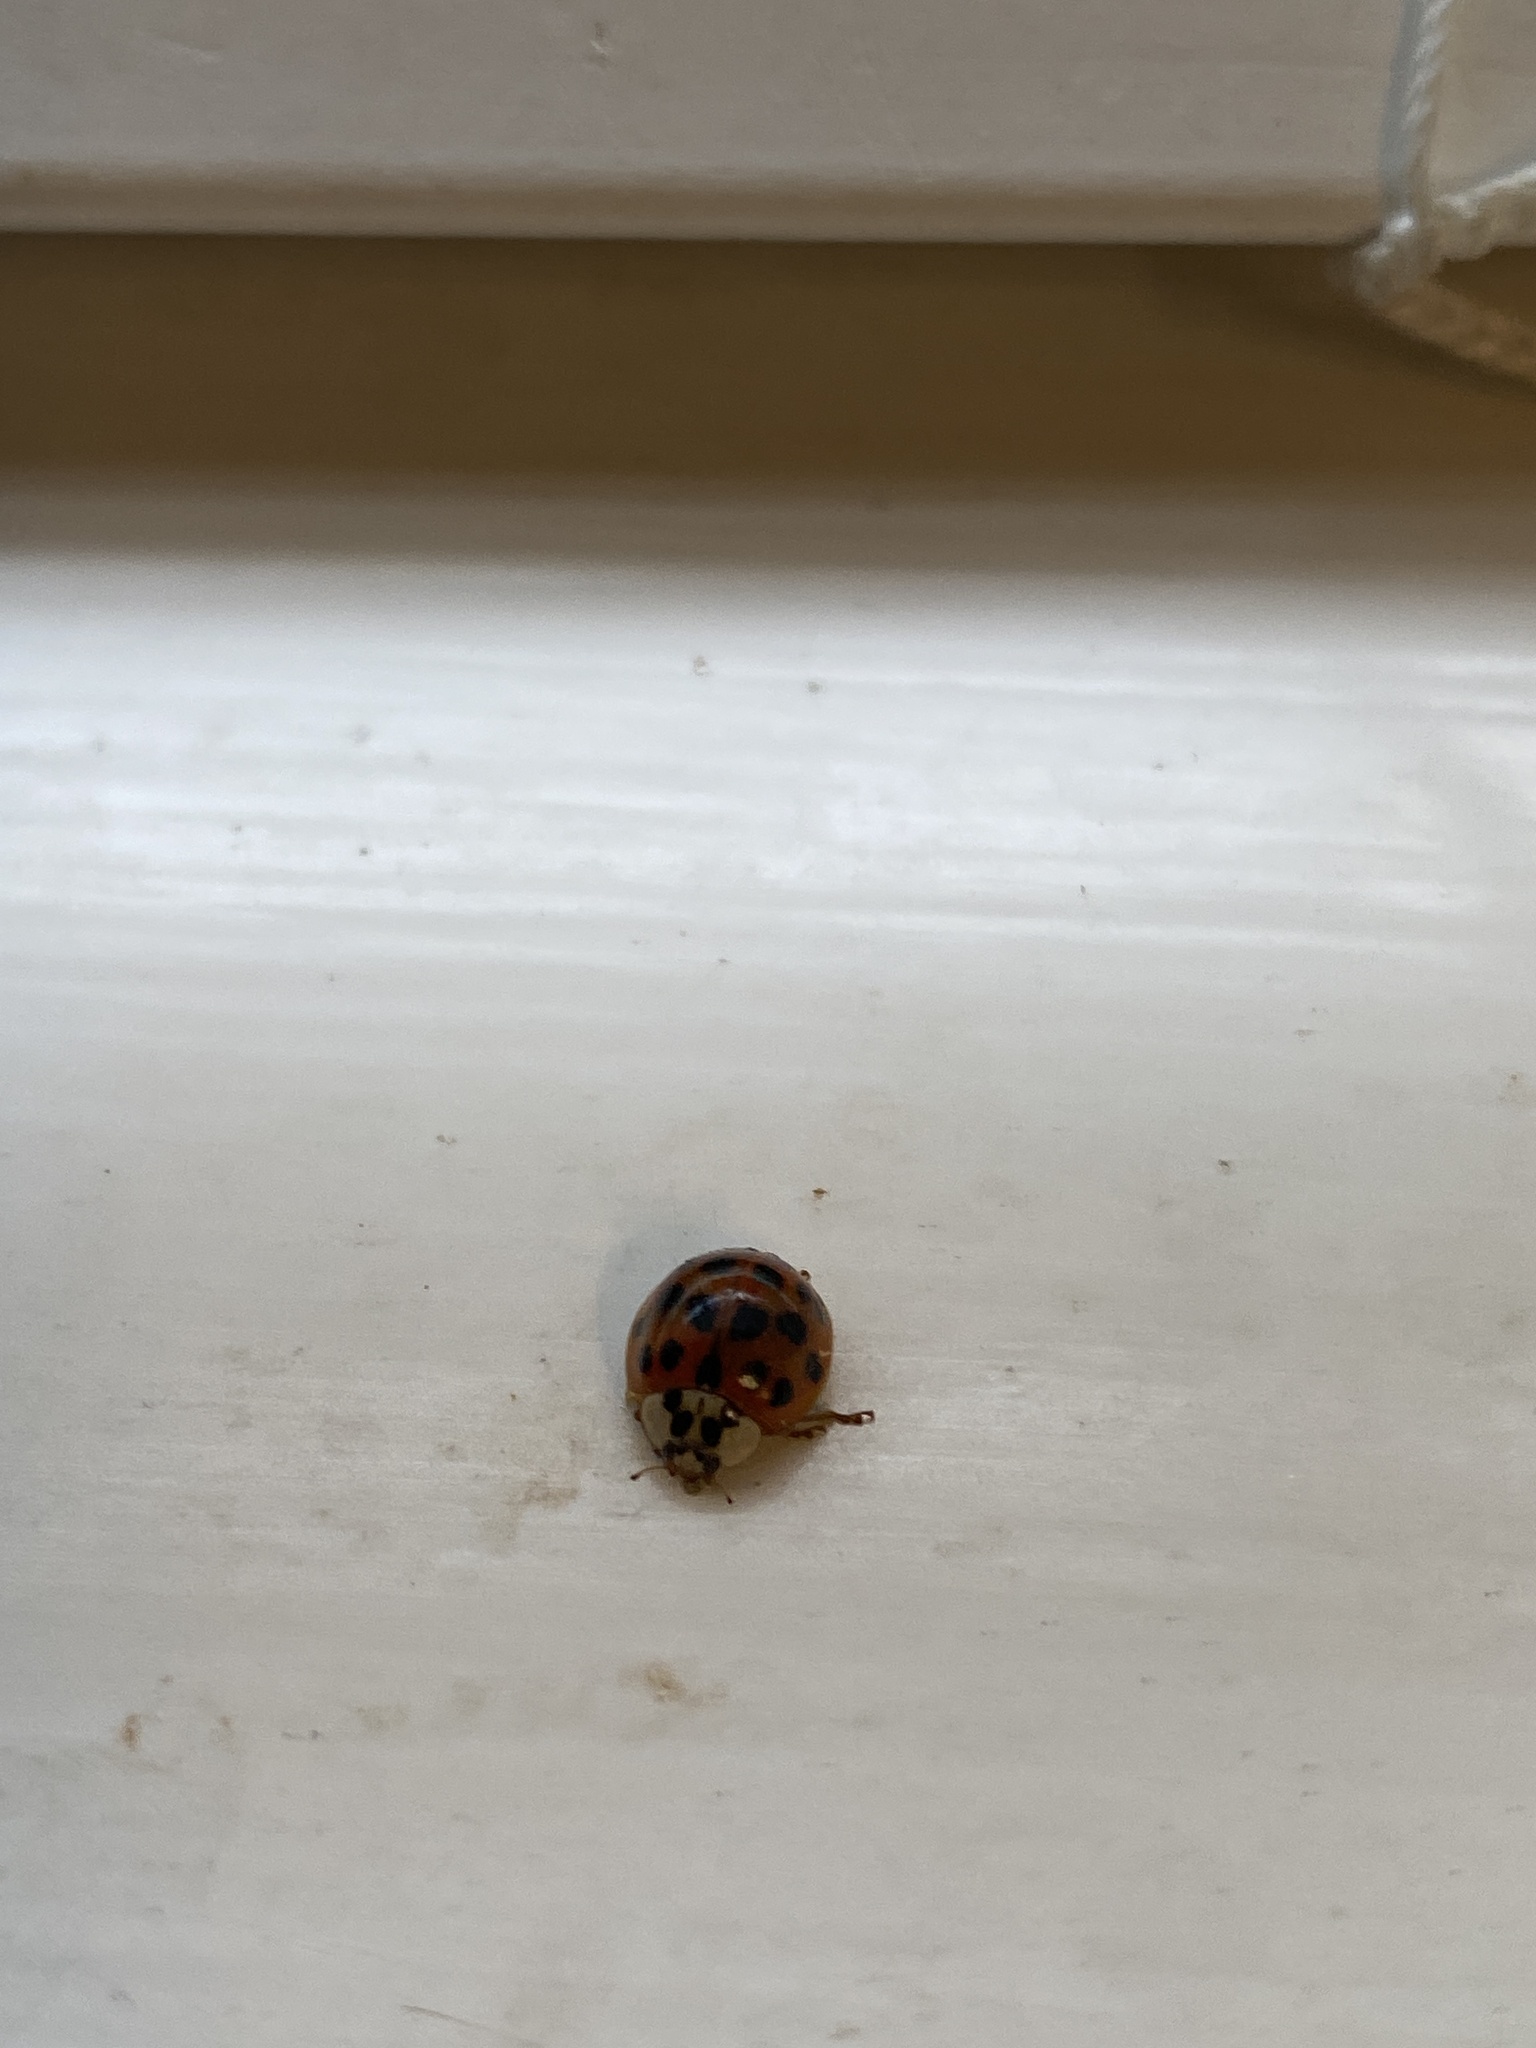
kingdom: Animalia
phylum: Arthropoda
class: Insecta
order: Coleoptera
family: Coccinellidae
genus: Harmonia
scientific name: Harmonia axyridis
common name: Harlequin ladybird
